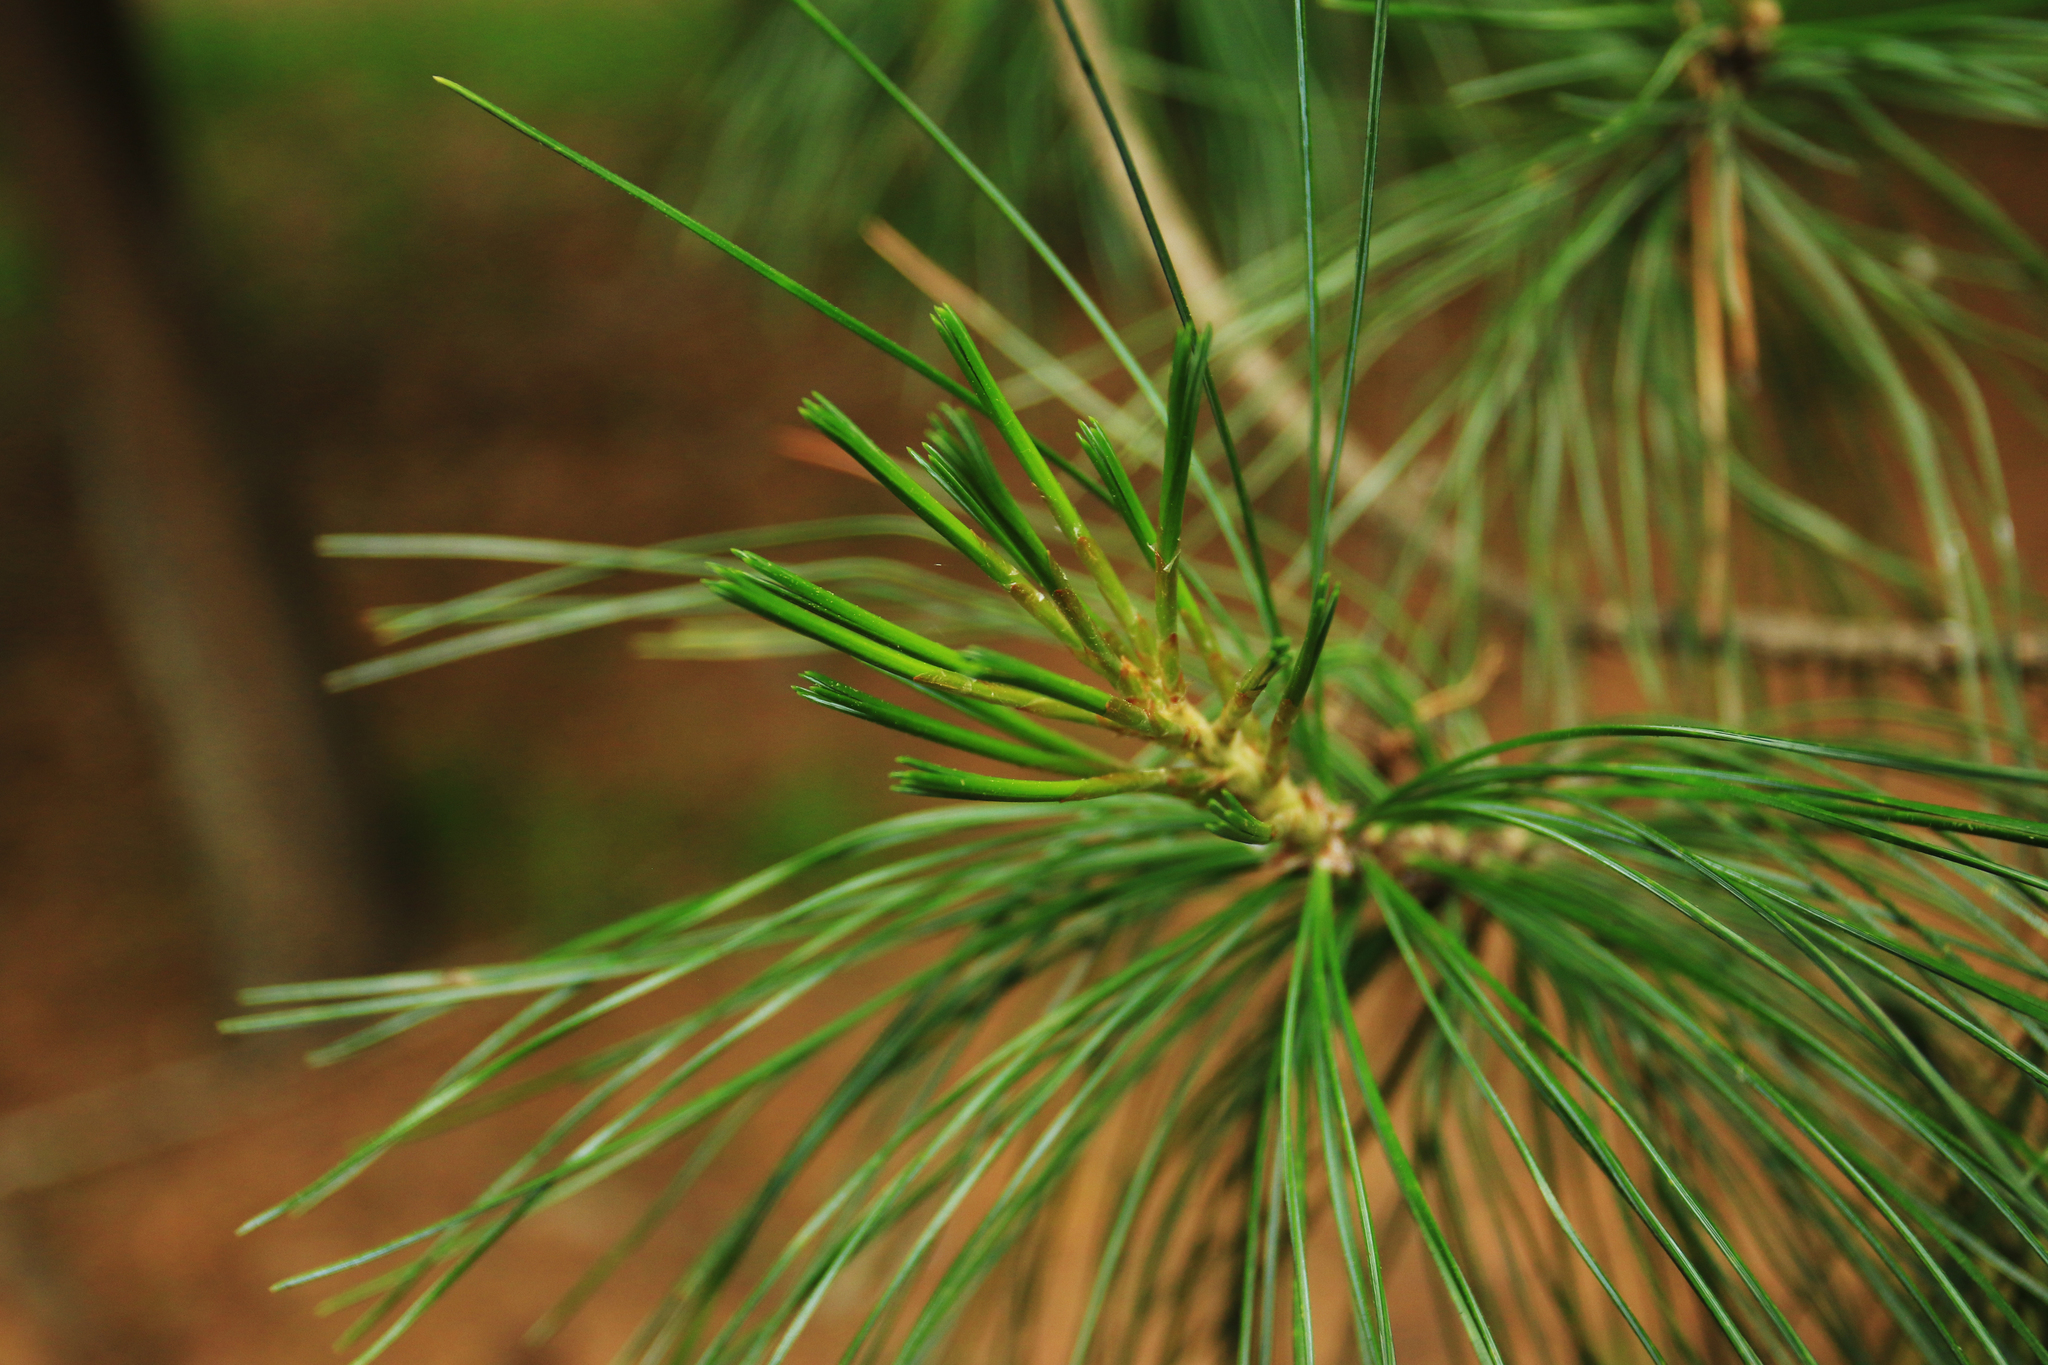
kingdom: Plantae
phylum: Tracheophyta
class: Pinopsida
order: Pinales
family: Pinaceae
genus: Pinus
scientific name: Pinus sibirica
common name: Siberian pine
